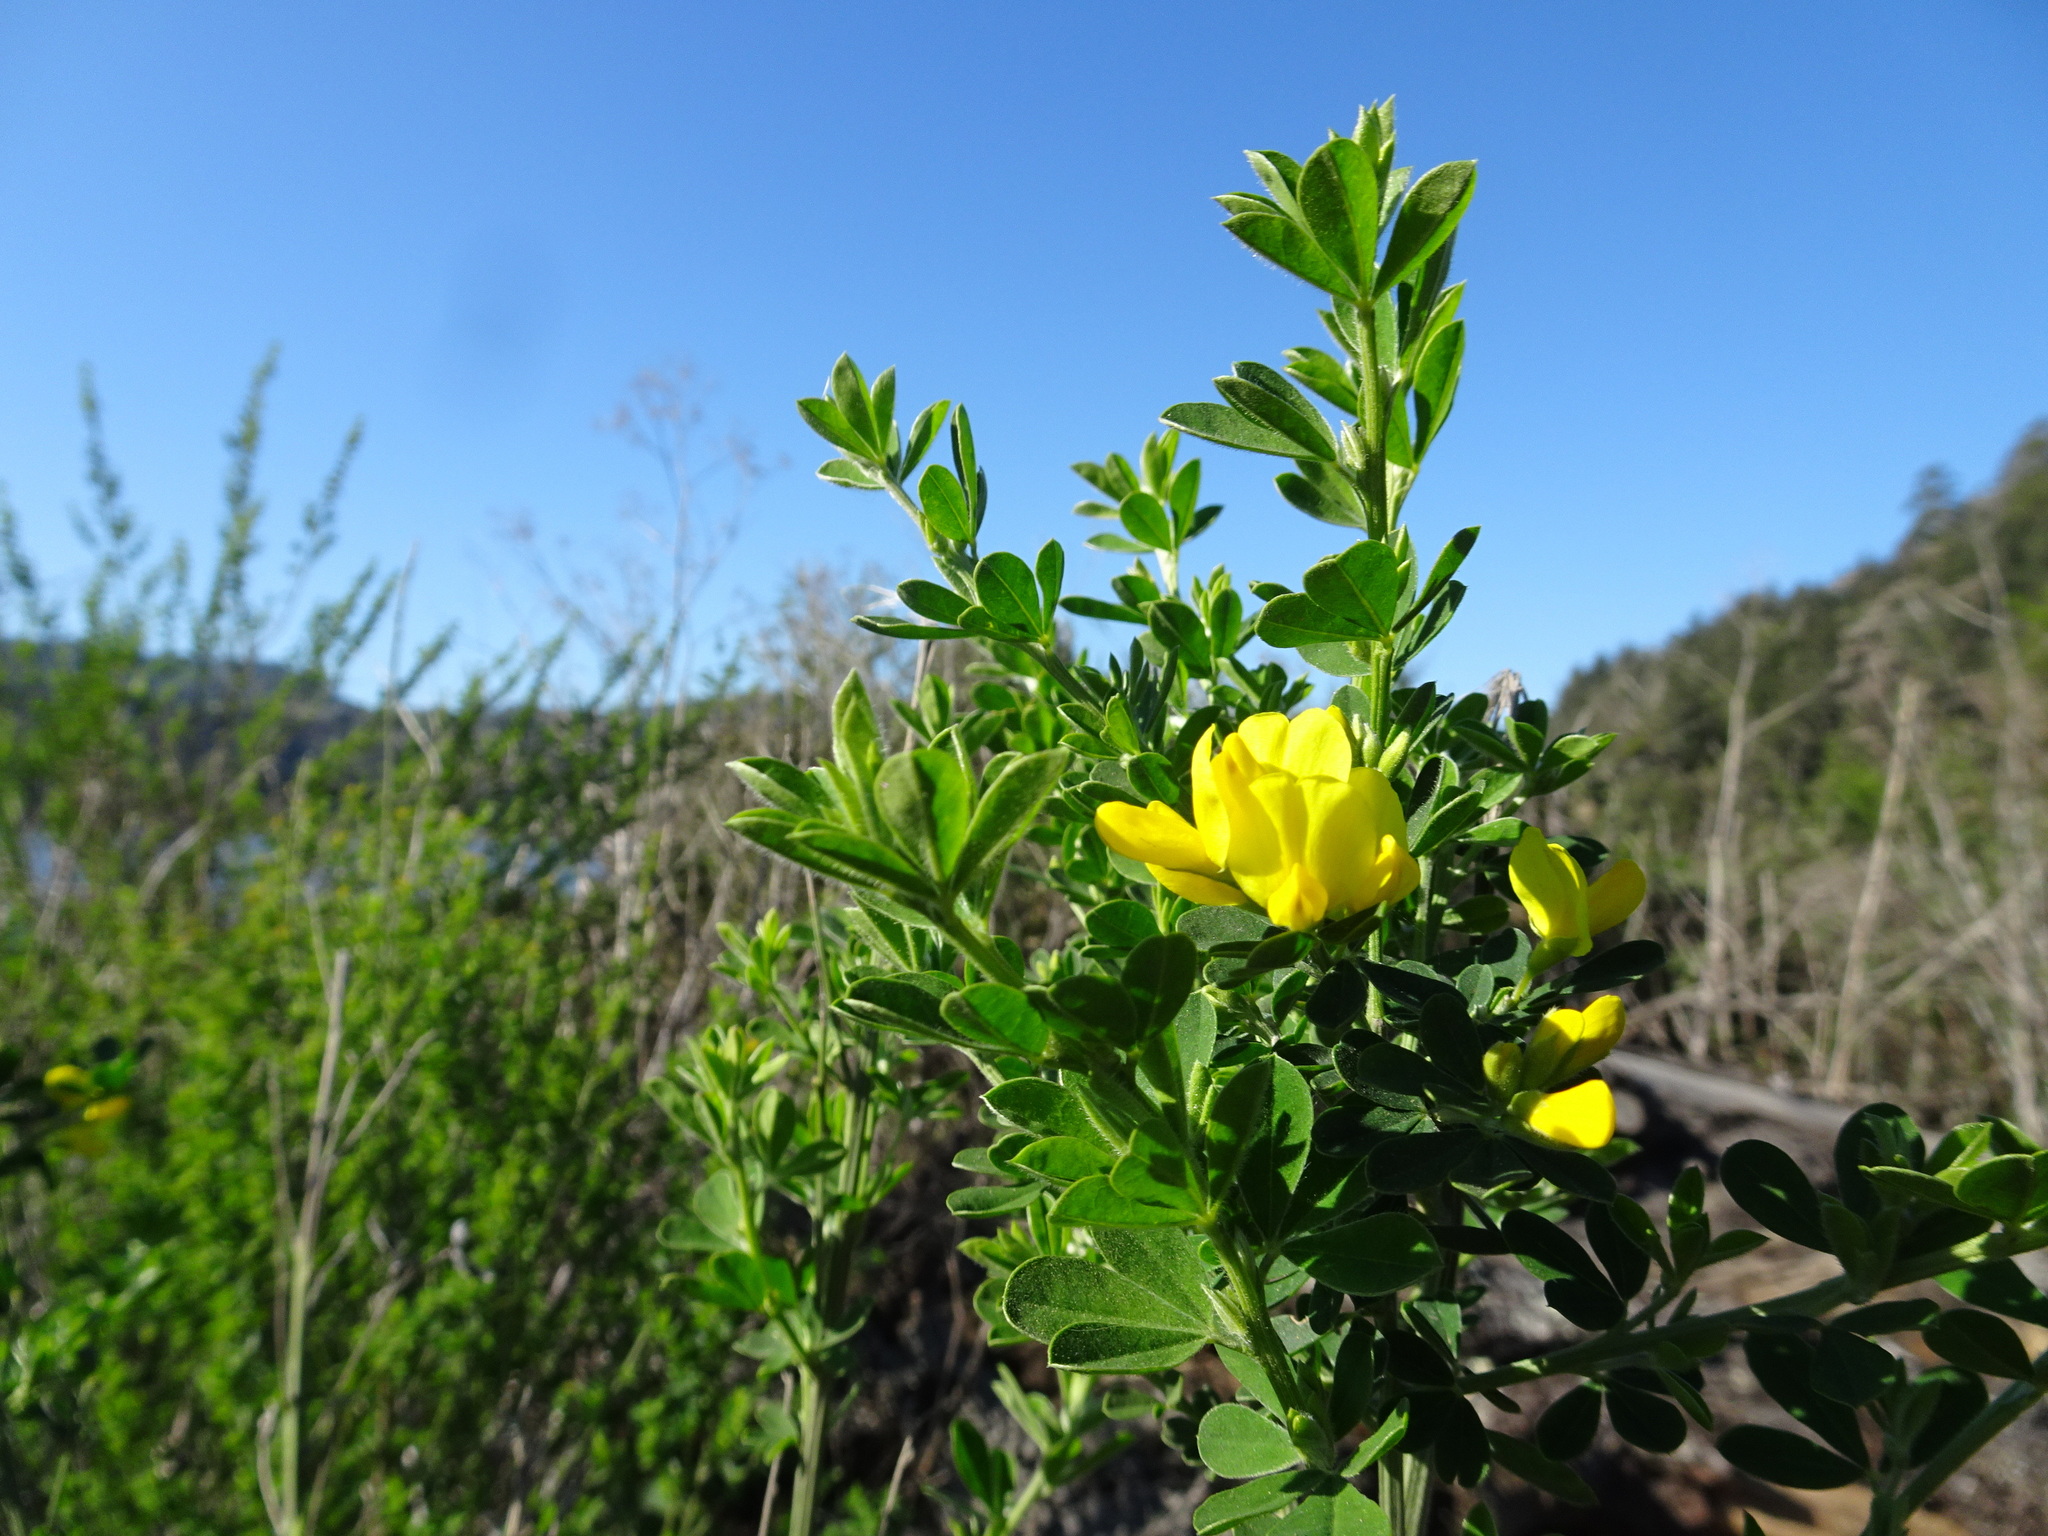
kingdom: Plantae
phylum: Tracheophyta
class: Magnoliopsida
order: Fabales
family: Fabaceae
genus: Genista
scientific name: Genista monspessulana
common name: Montpellier broom
